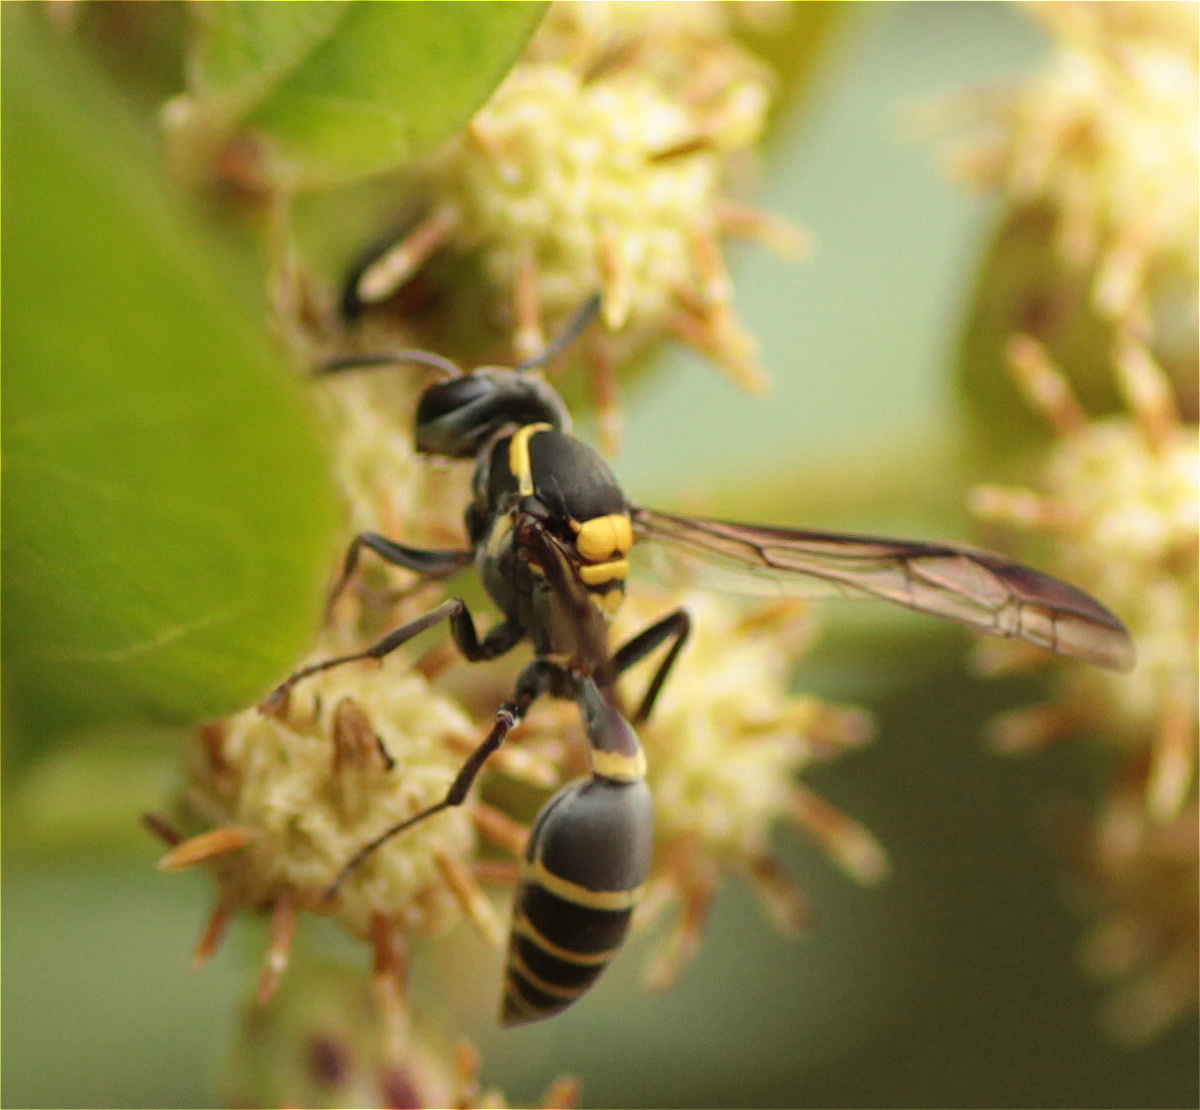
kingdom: Animalia
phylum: Arthropoda
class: Insecta
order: Hymenoptera
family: Eumenidae
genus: Polybia
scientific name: Polybia occidentalis
